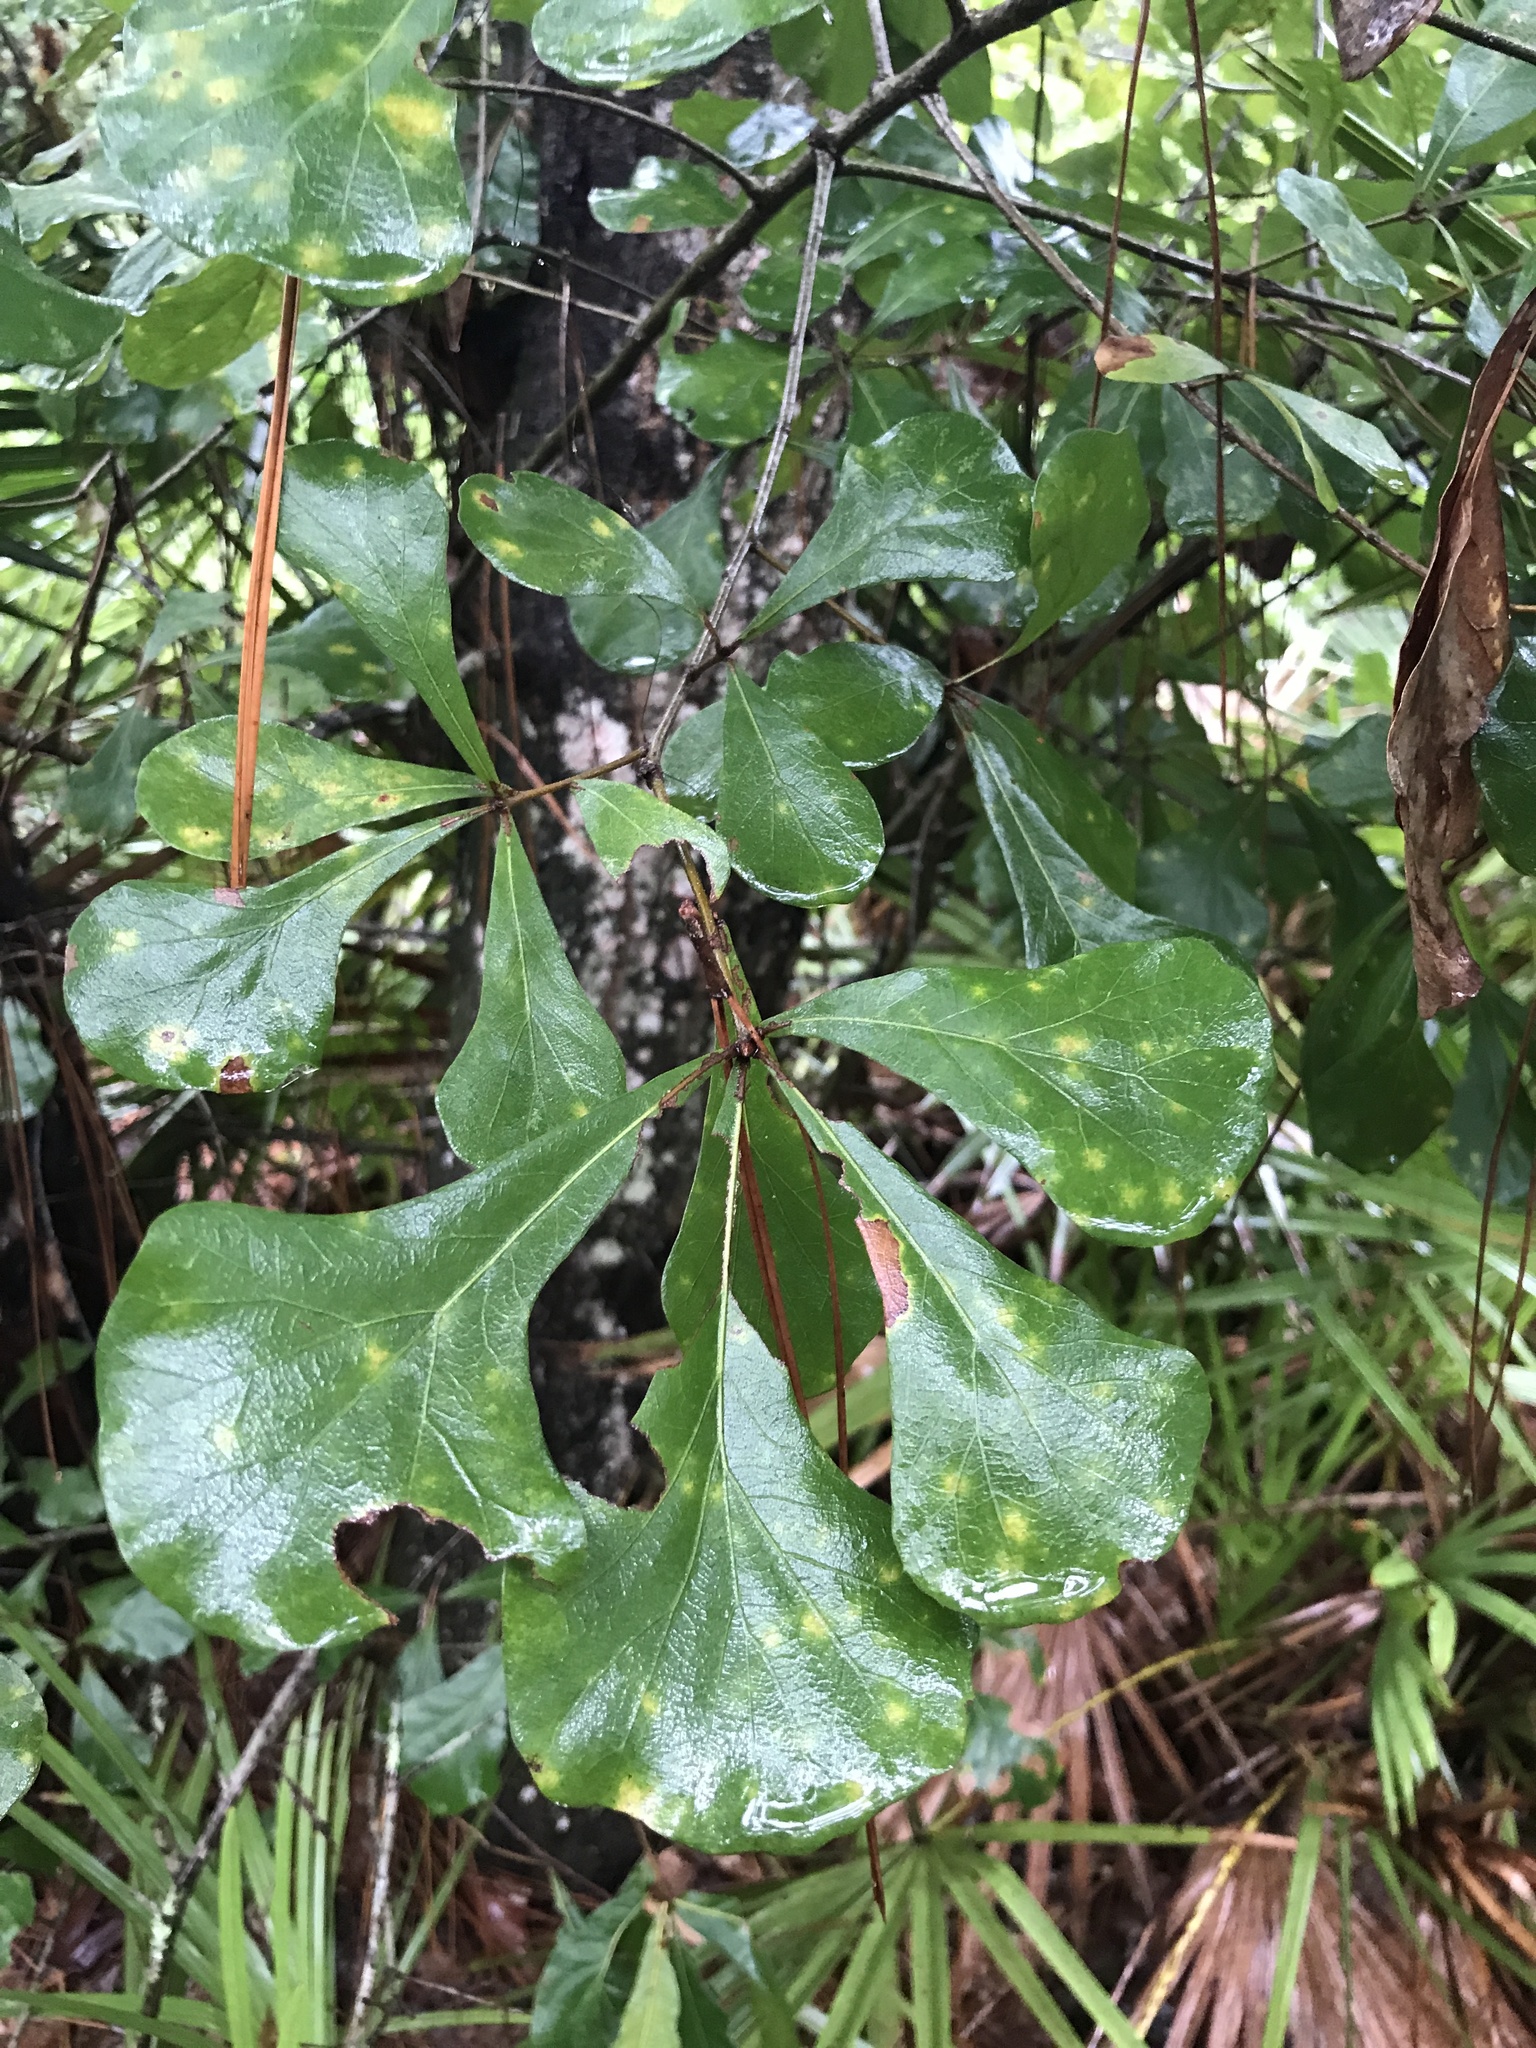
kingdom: Plantae
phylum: Tracheophyta
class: Magnoliopsida
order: Fagales
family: Fagaceae
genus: Quercus
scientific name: Quercus nigra
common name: Water oak
